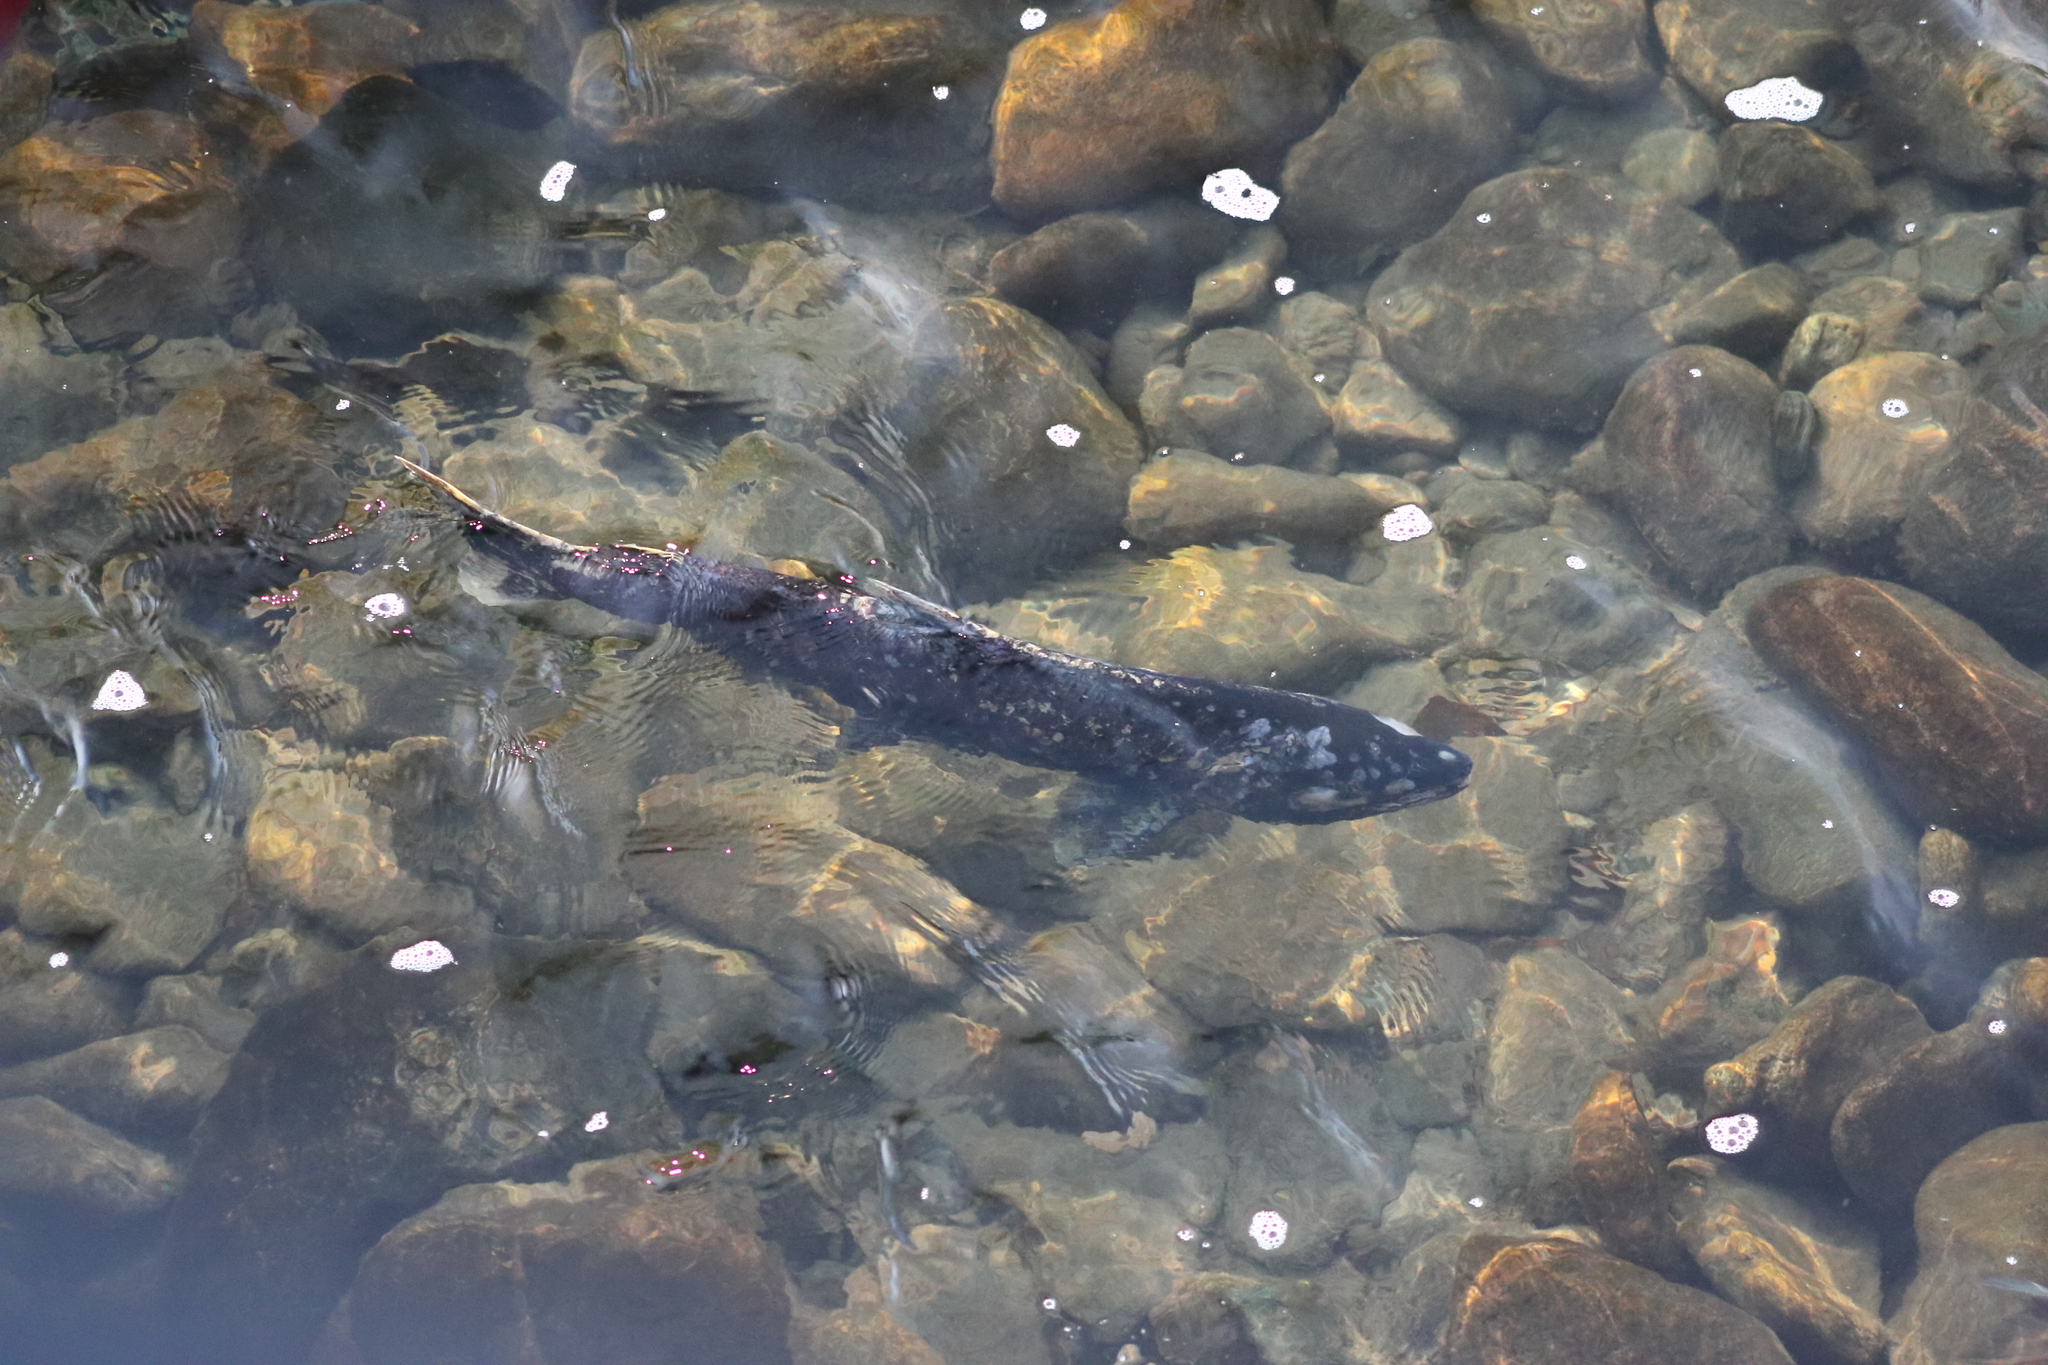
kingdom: Animalia
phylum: Chordata
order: Salmoniformes
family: Salmonidae
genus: Oncorhynchus
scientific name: Oncorhynchus tshawytscha
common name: Chinook salmon
